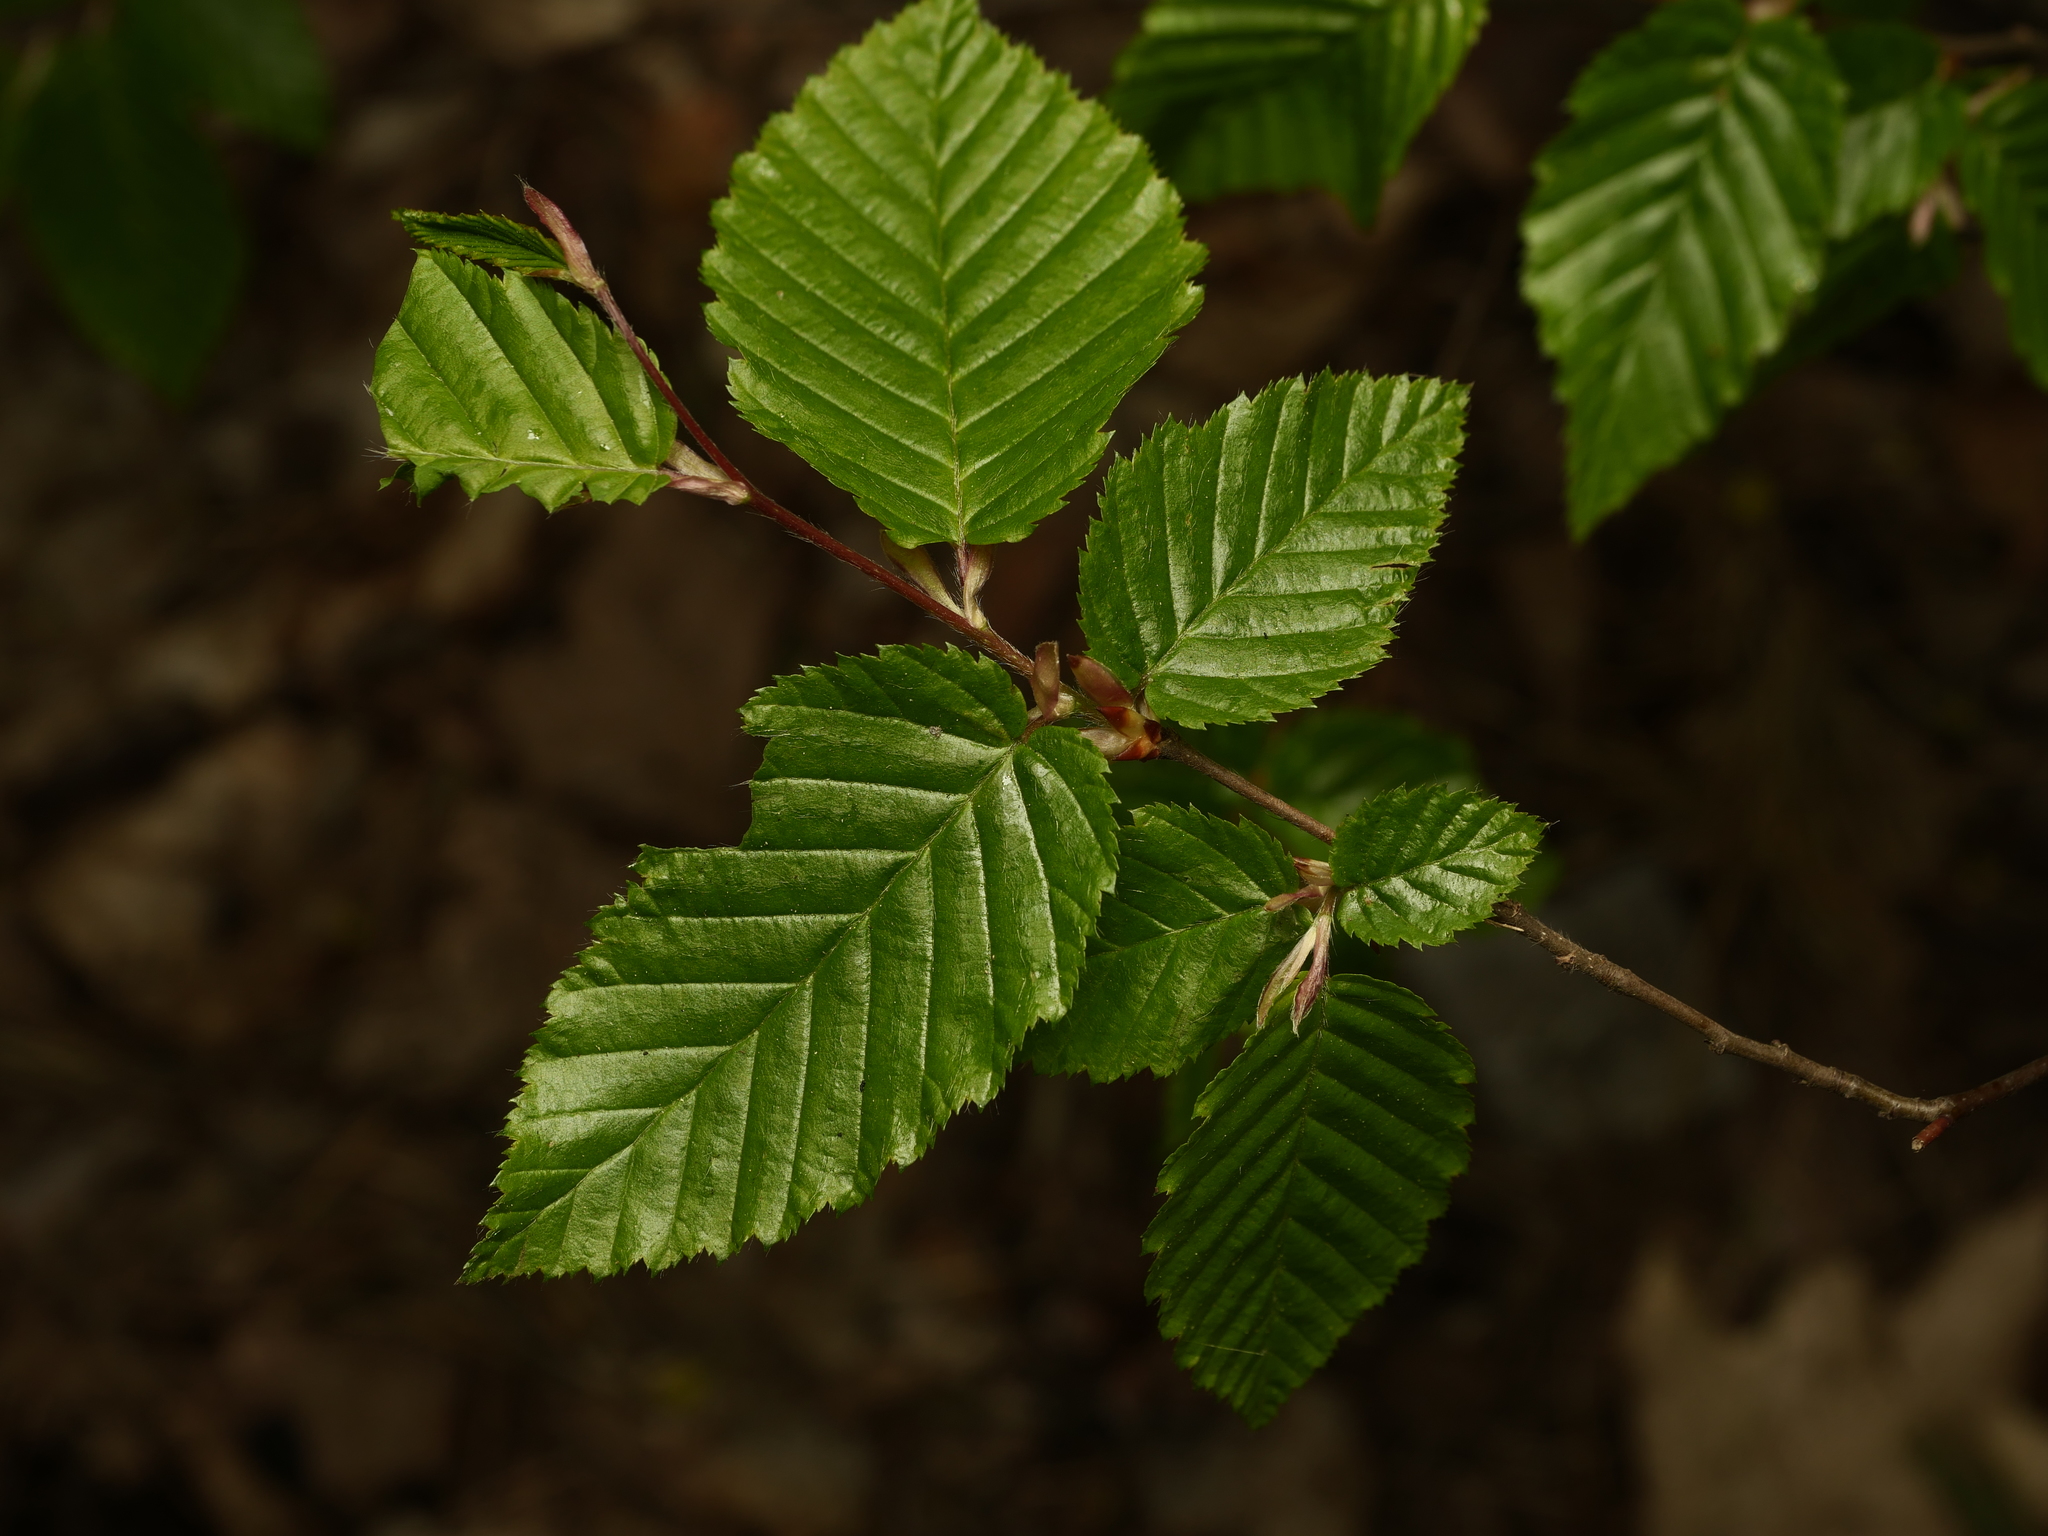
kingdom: Plantae
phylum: Tracheophyta
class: Magnoliopsida
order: Fagales
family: Betulaceae
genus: Carpinus
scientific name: Carpinus betulus
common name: Hornbeam
